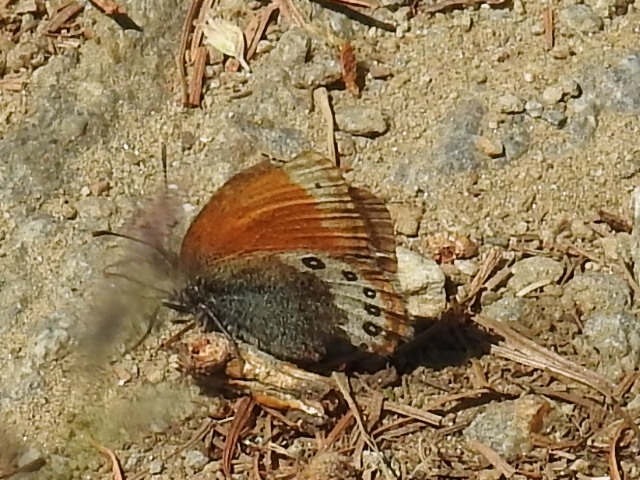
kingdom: Animalia
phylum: Arthropoda
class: Insecta
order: Lepidoptera
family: Nymphalidae
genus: Coenonympha
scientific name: Coenonympha
